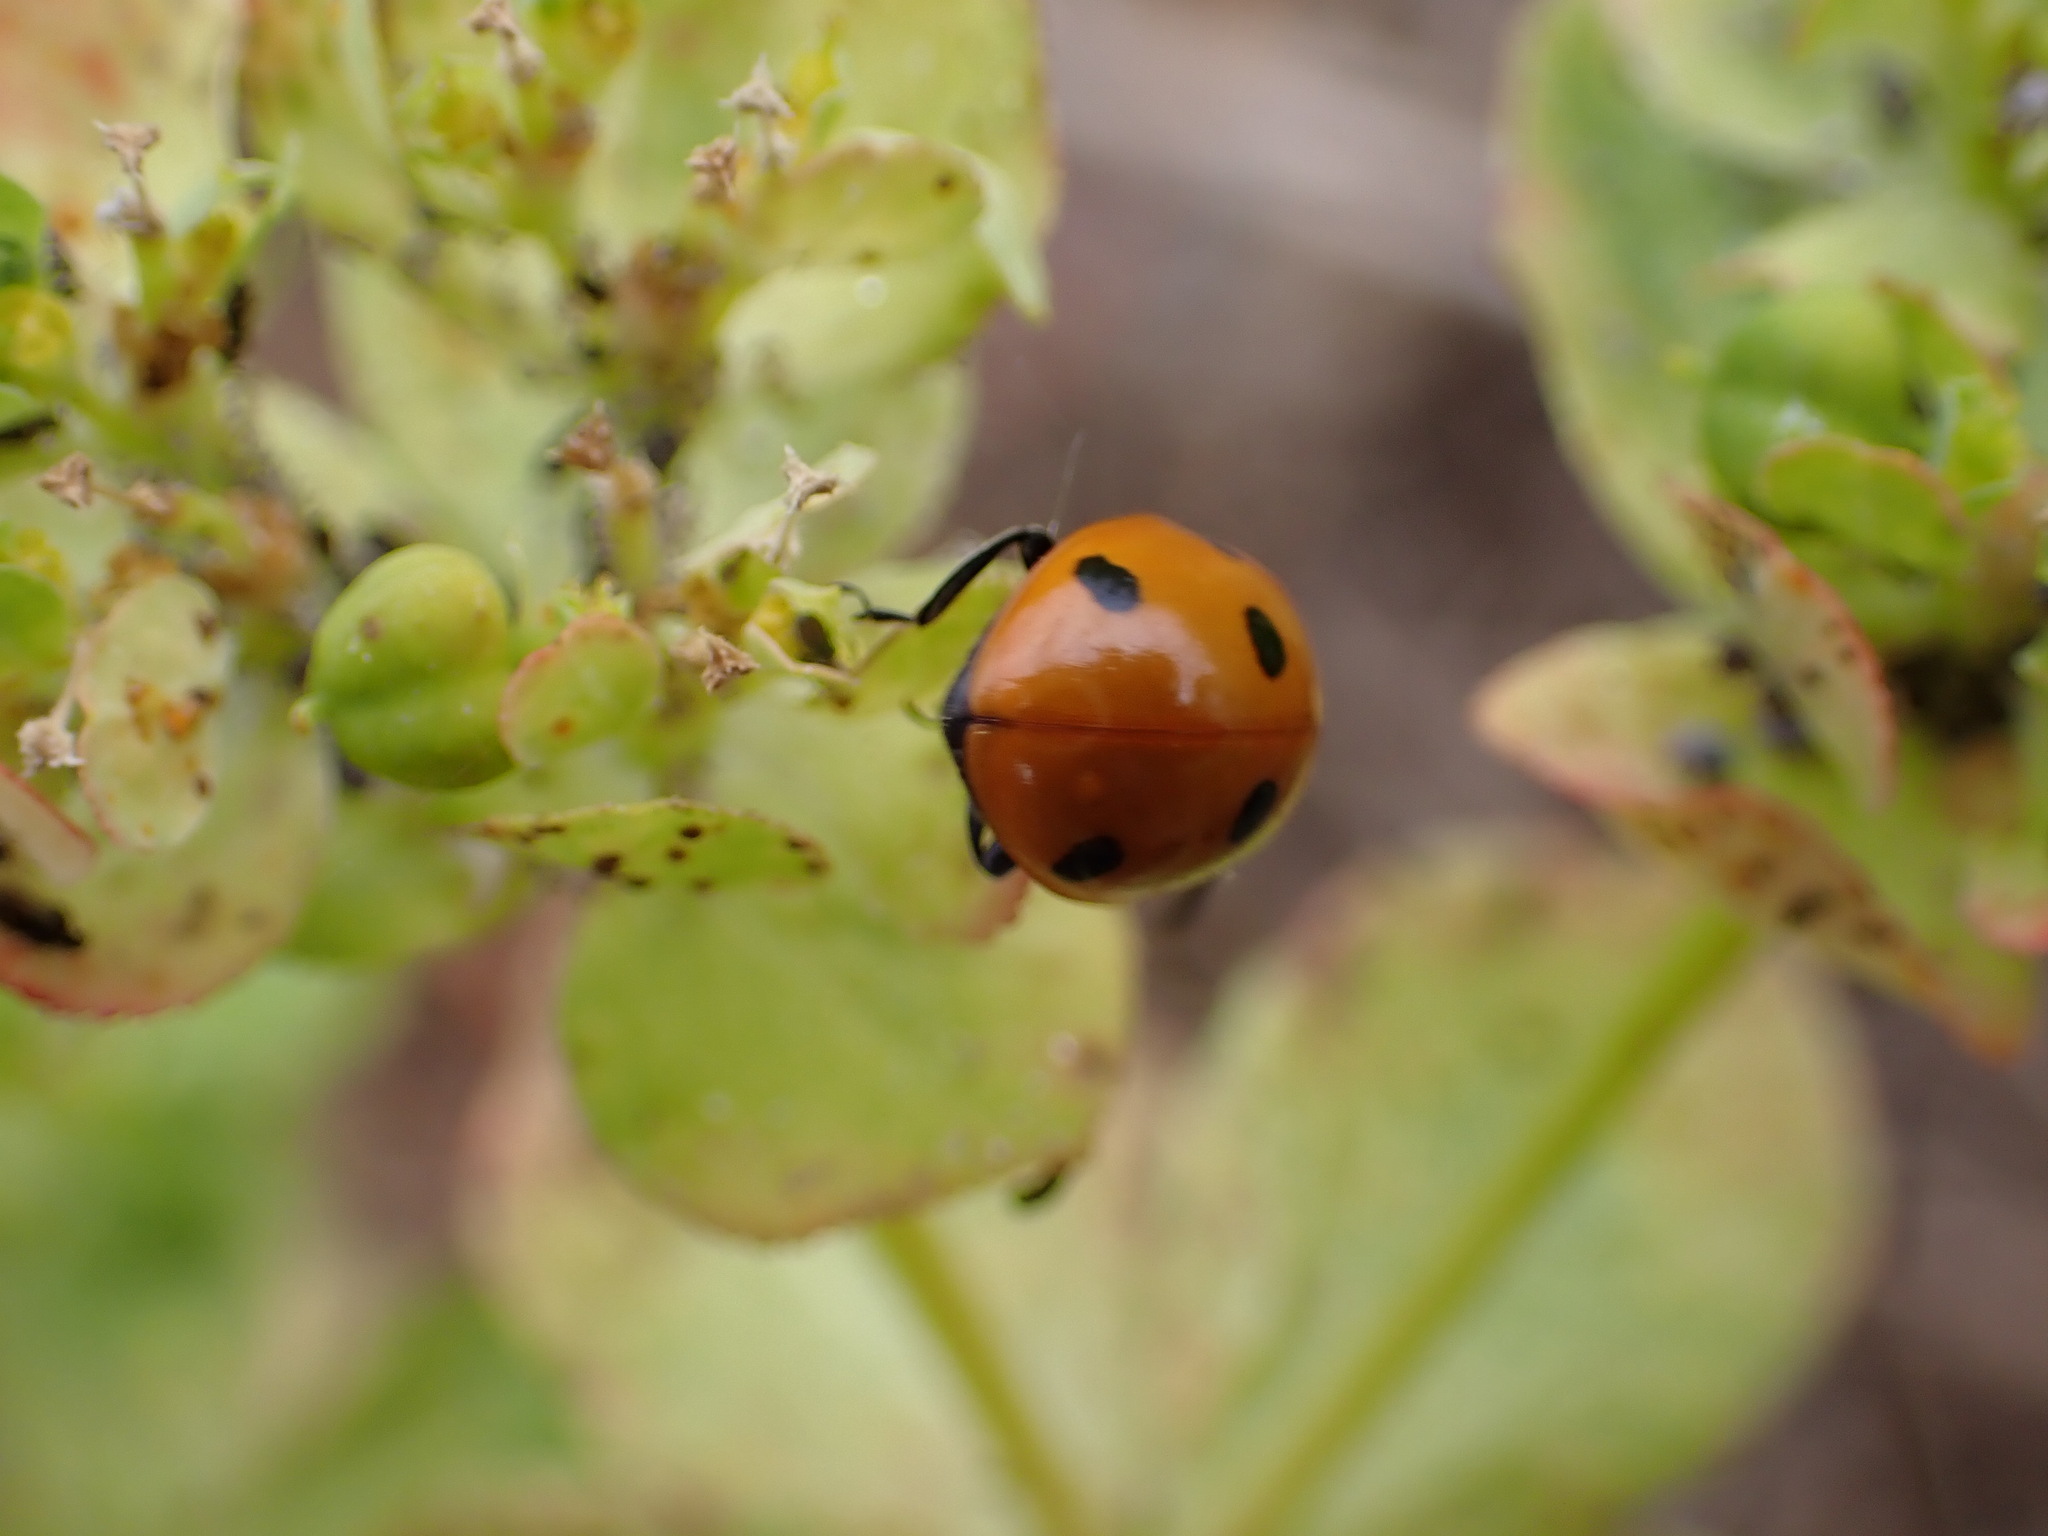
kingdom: Animalia
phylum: Arthropoda
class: Insecta
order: Coleoptera
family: Coccinellidae
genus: Coccinella
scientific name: Coccinella septempunctata
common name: Sevenspotted lady beetle
